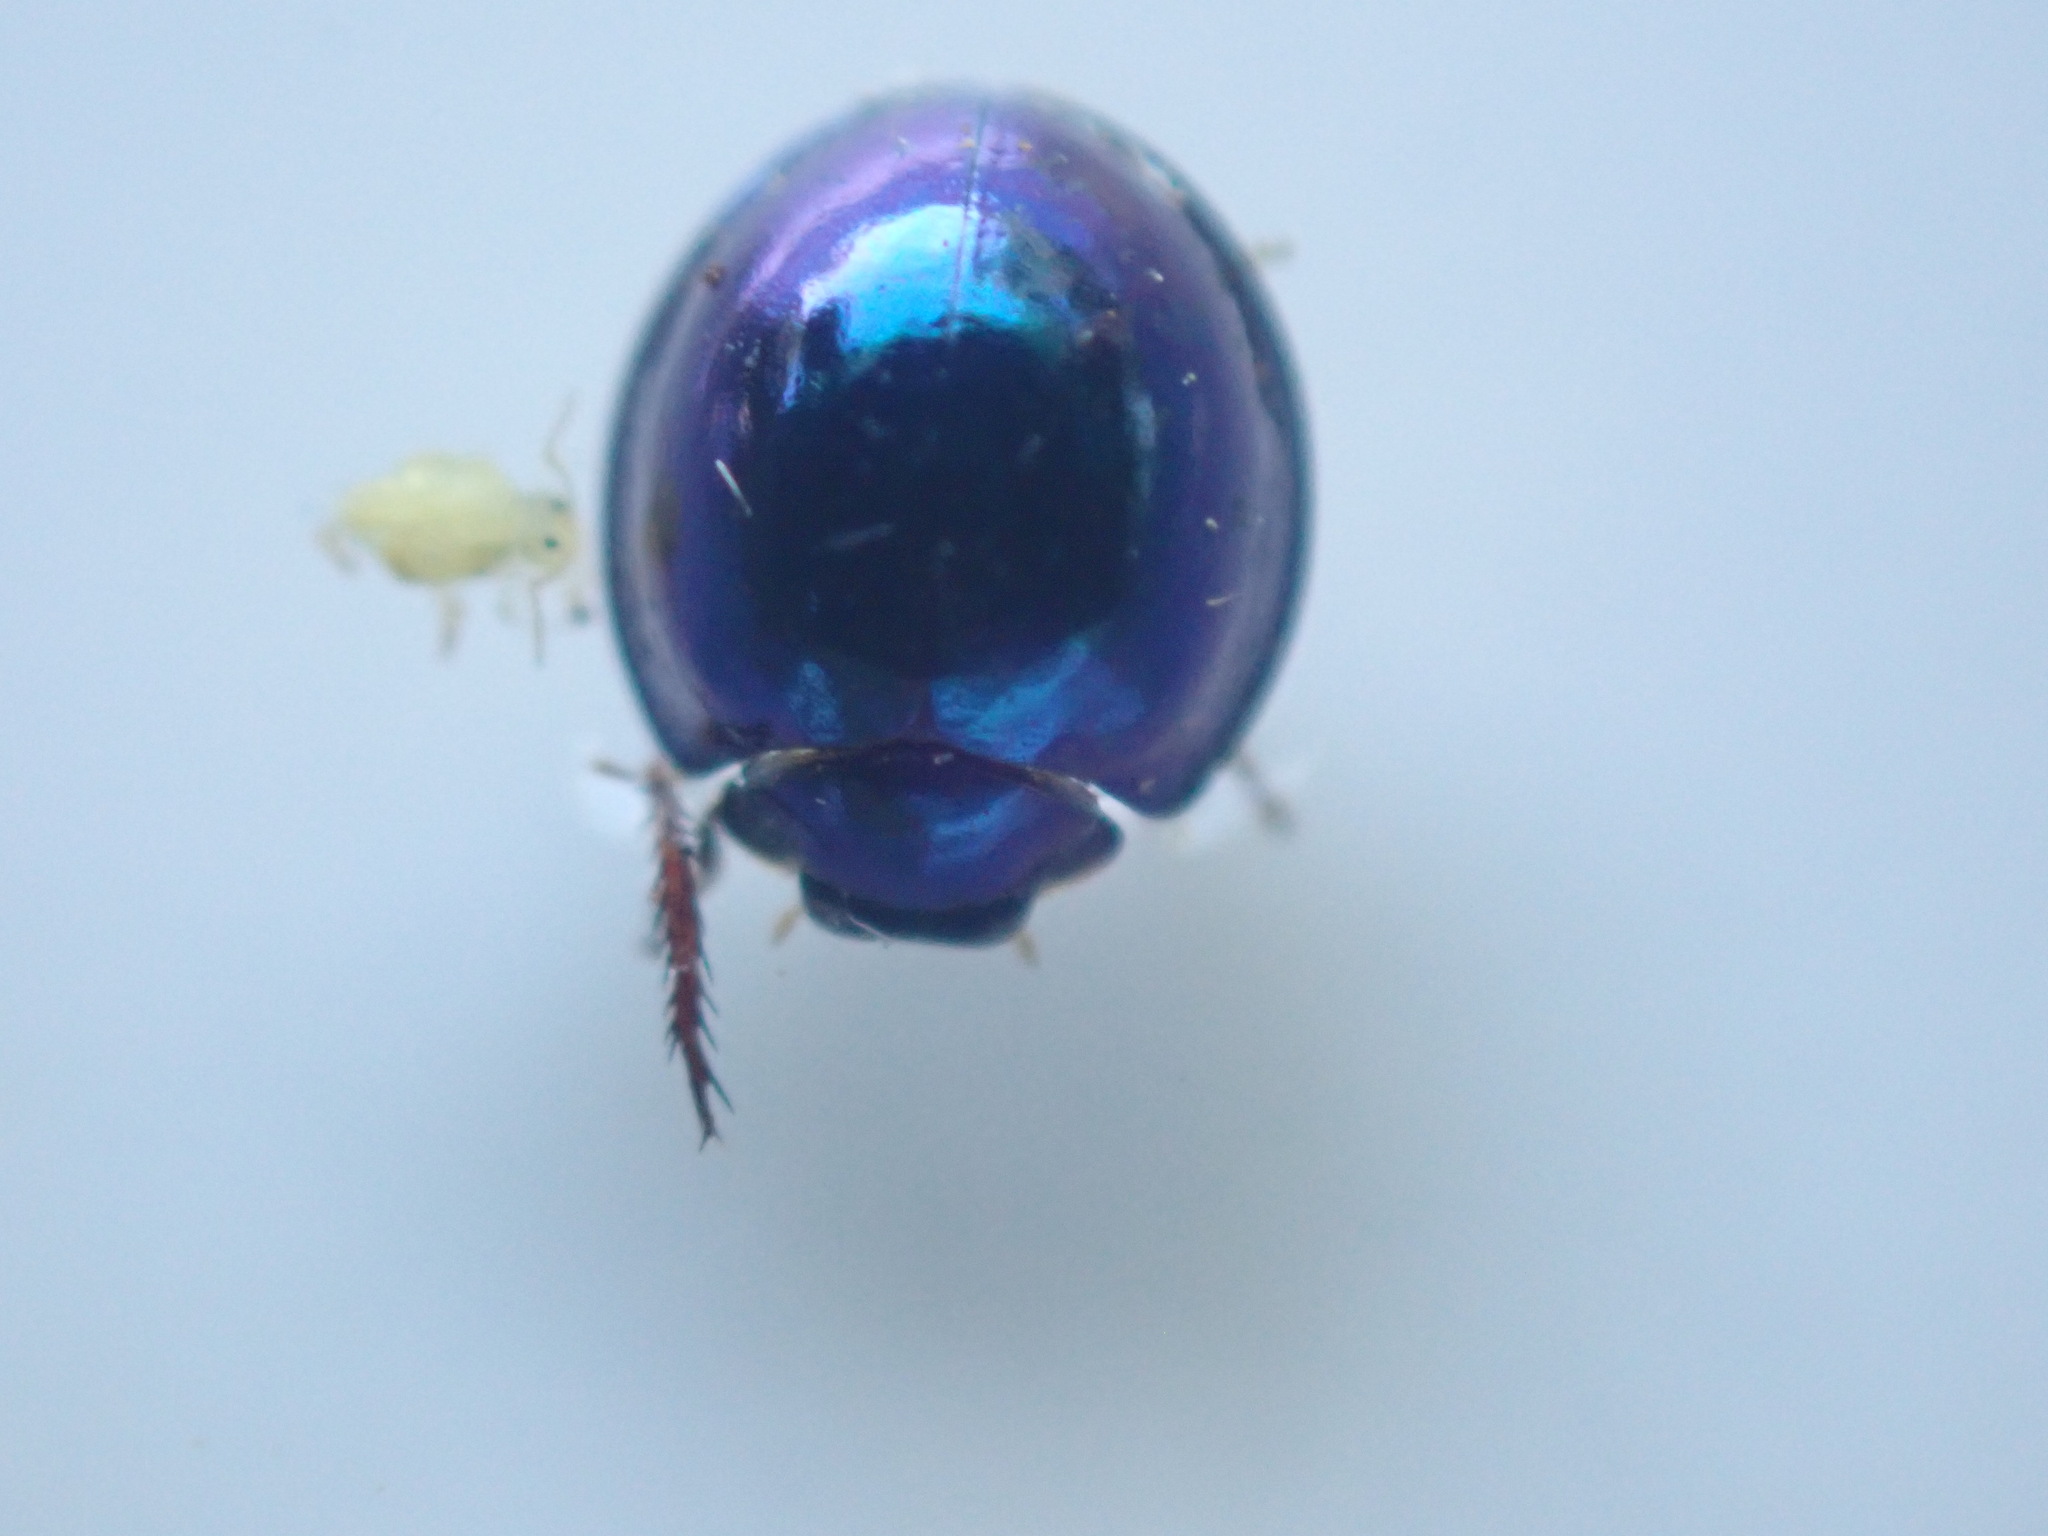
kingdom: Animalia
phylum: Arthropoda
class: Insecta
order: Coleoptera
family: Coccinellidae
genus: Halmus
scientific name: Halmus chalybeus
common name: Steel blue ladybird beetle
